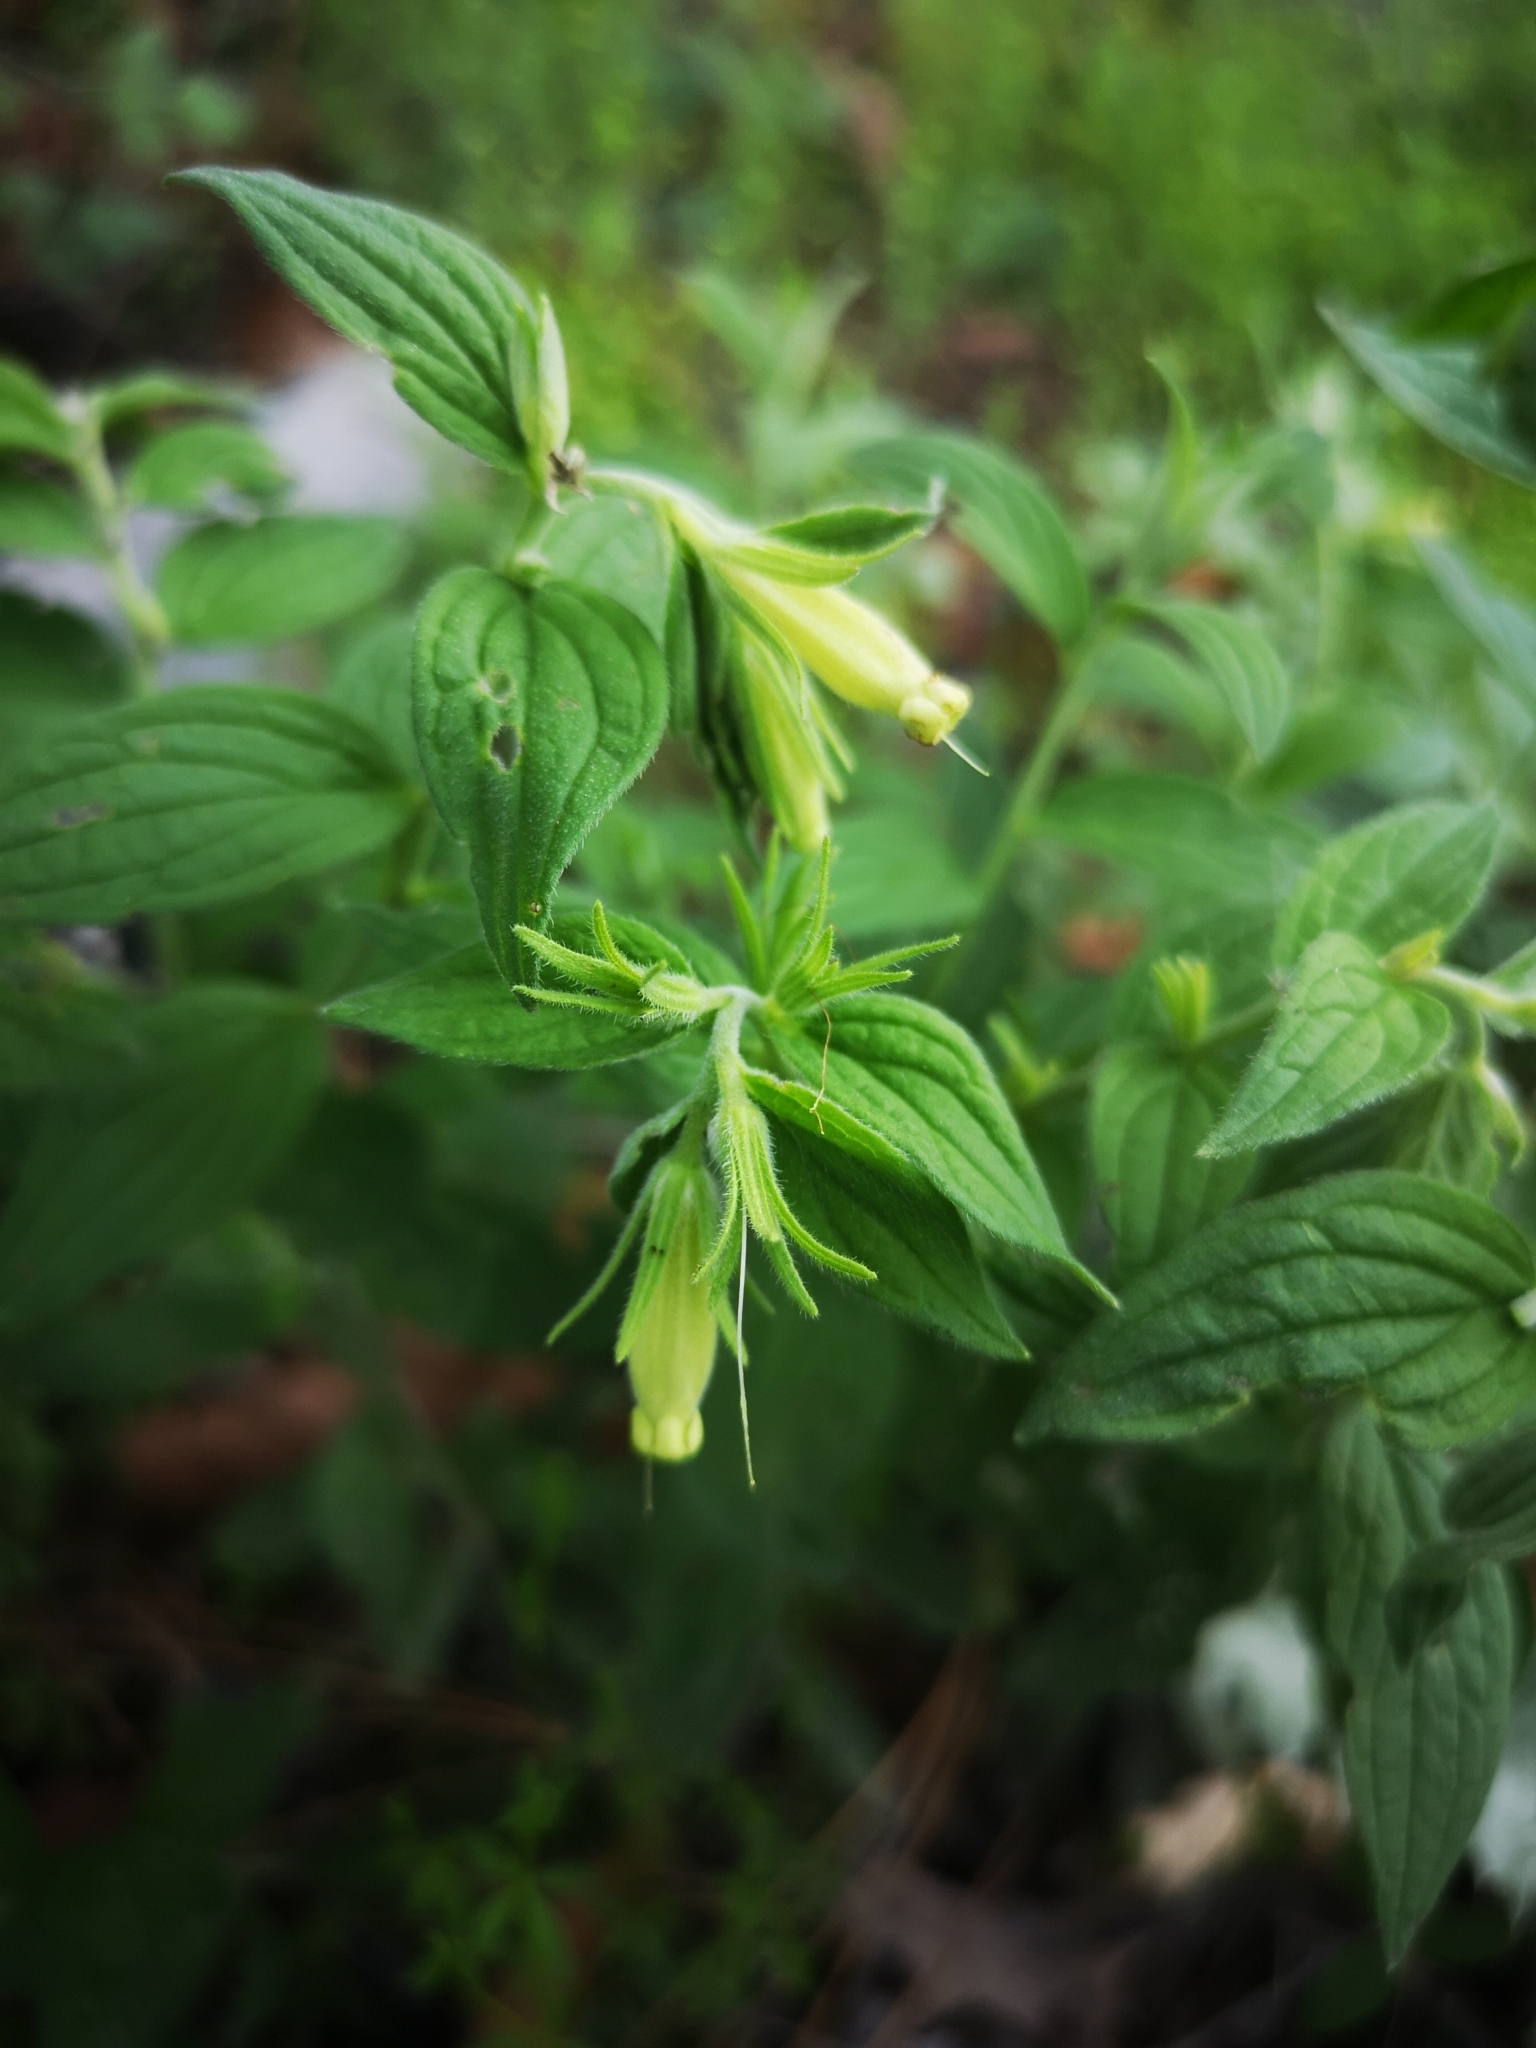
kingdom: Plantae
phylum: Tracheophyta
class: Magnoliopsida
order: Boraginales
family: Boraginaceae
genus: Lithospermum
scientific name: Lithospermum viride
